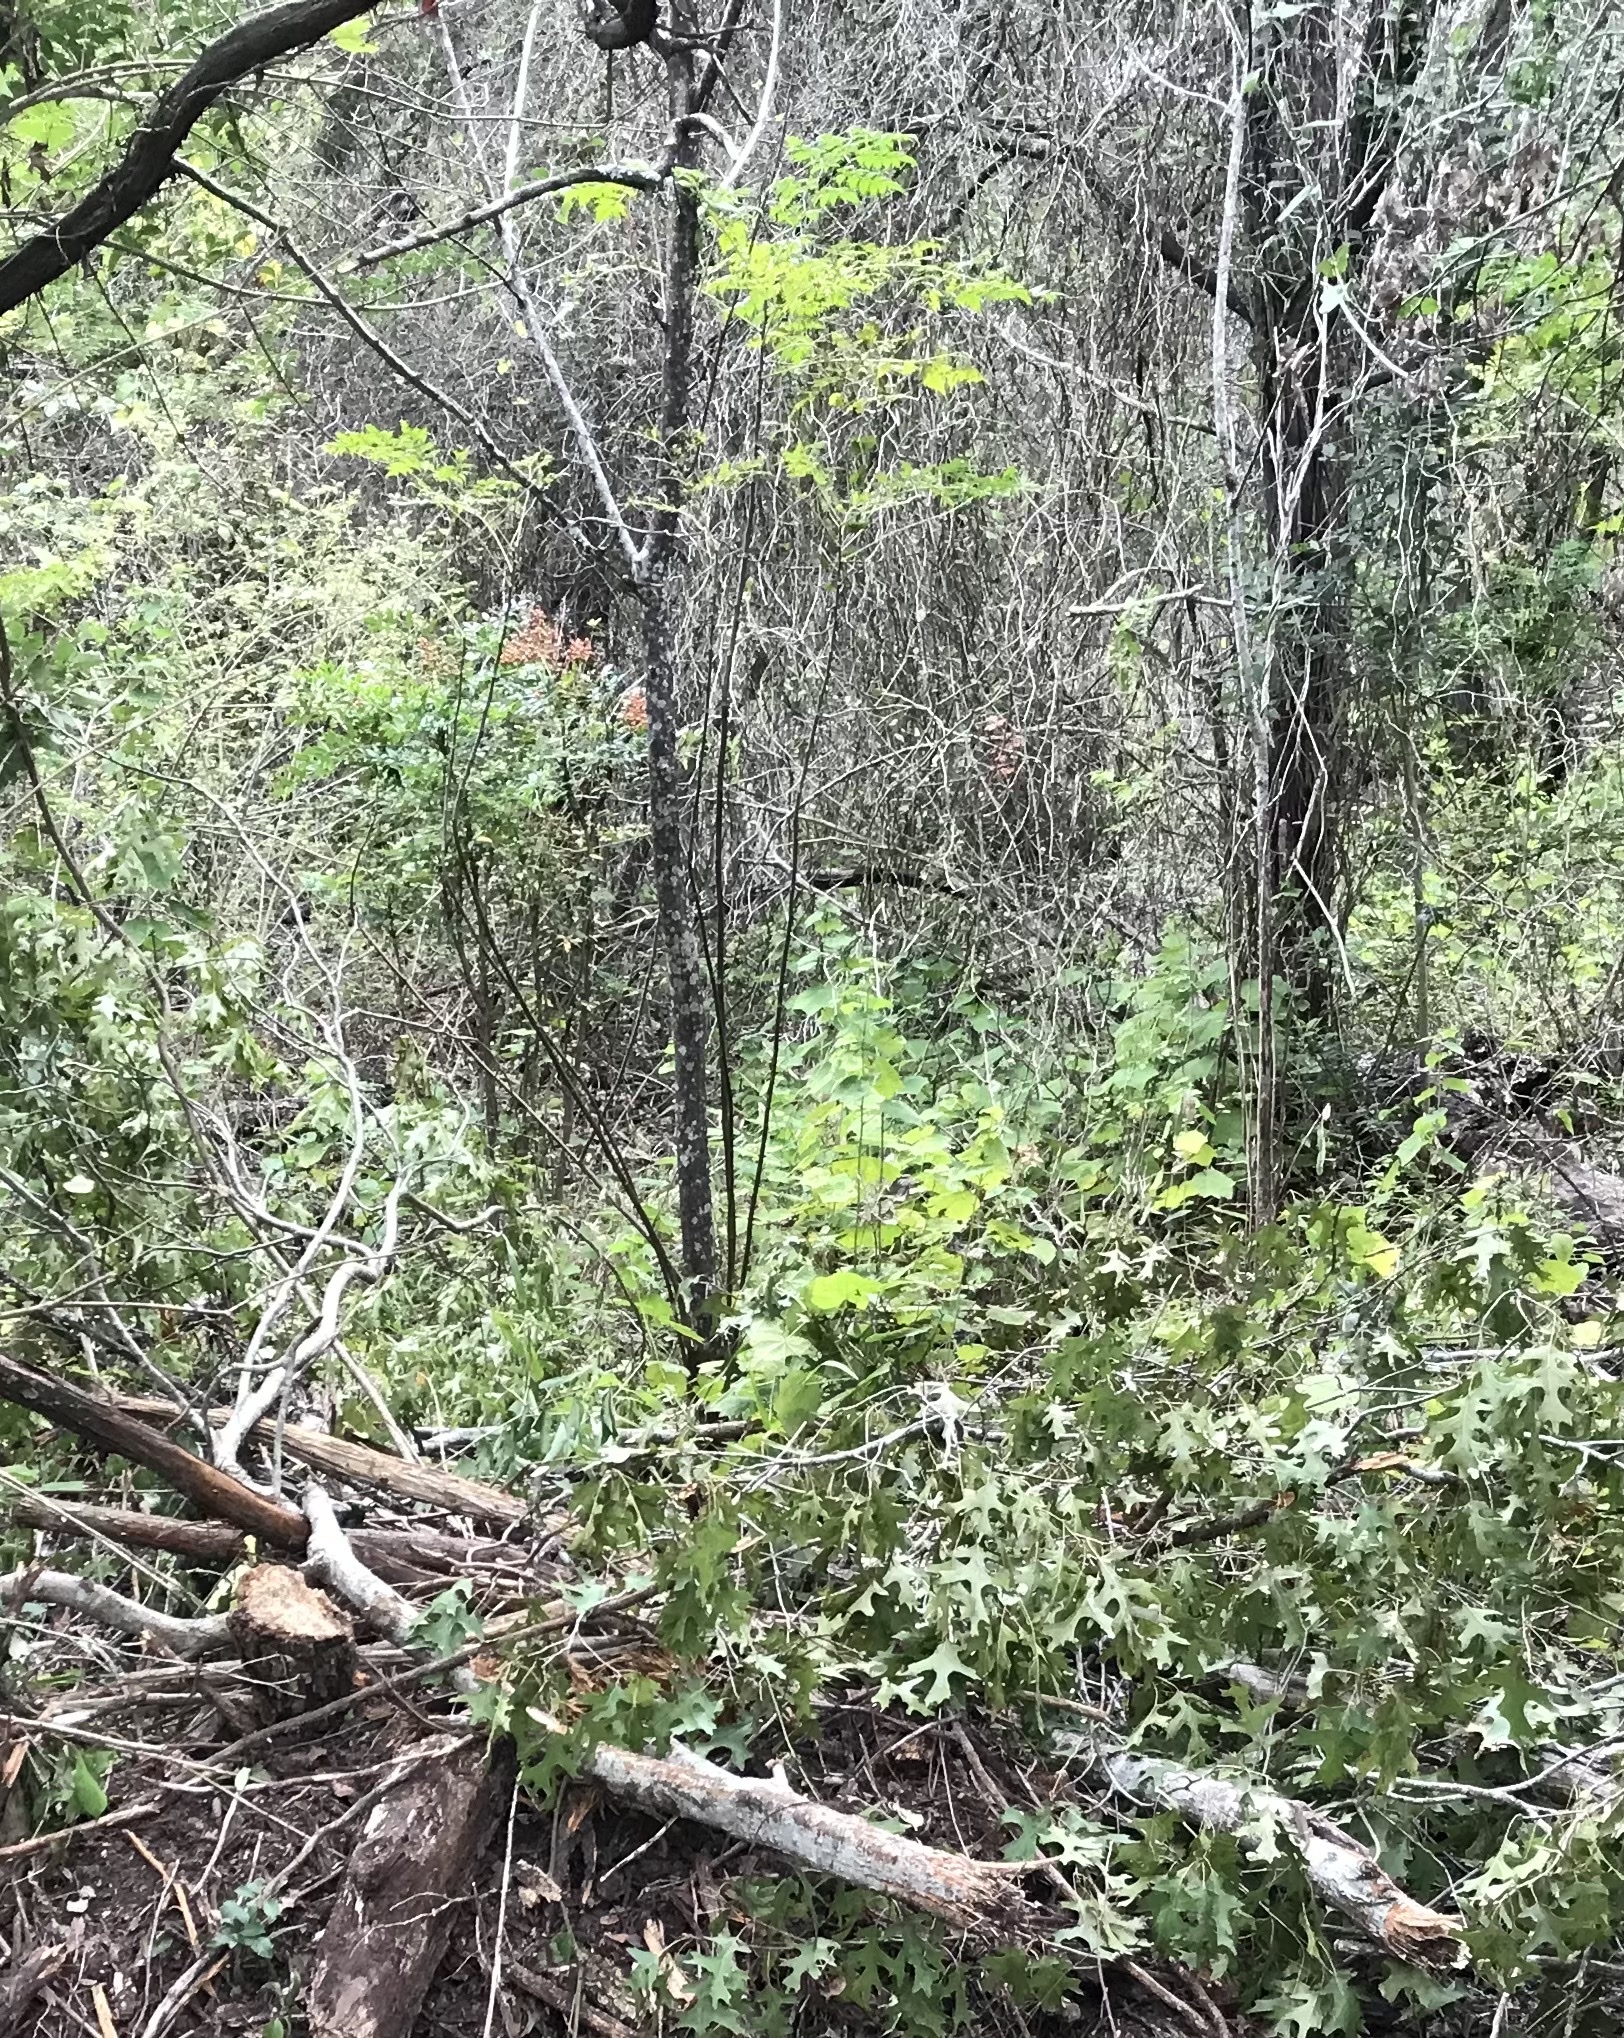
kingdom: Plantae
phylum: Tracheophyta
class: Magnoliopsida
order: Sapindales
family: Meliaceae
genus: Melia
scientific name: Melia azedarach
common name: Chinaberrytree
